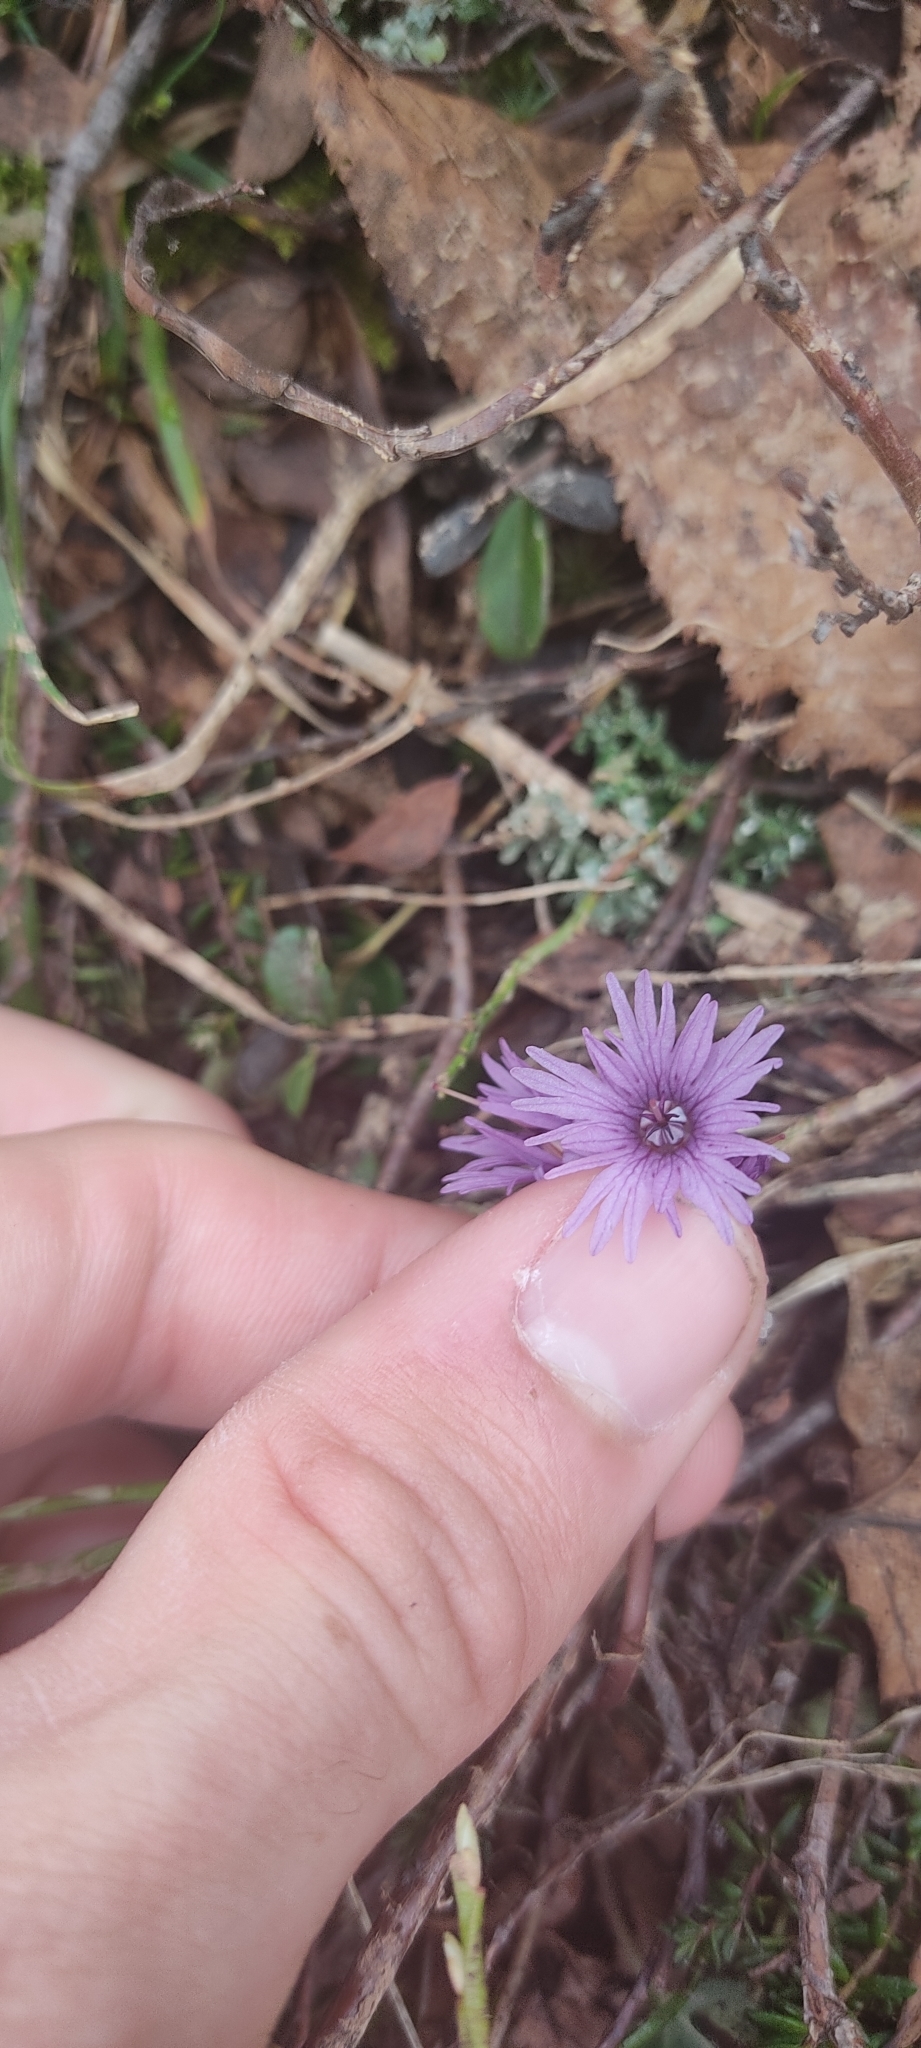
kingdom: Plantae
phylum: Tracheophyta
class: Magnoliopsida
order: Ericales
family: Primulaceae
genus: Soldanella
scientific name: Soldanella alpina
